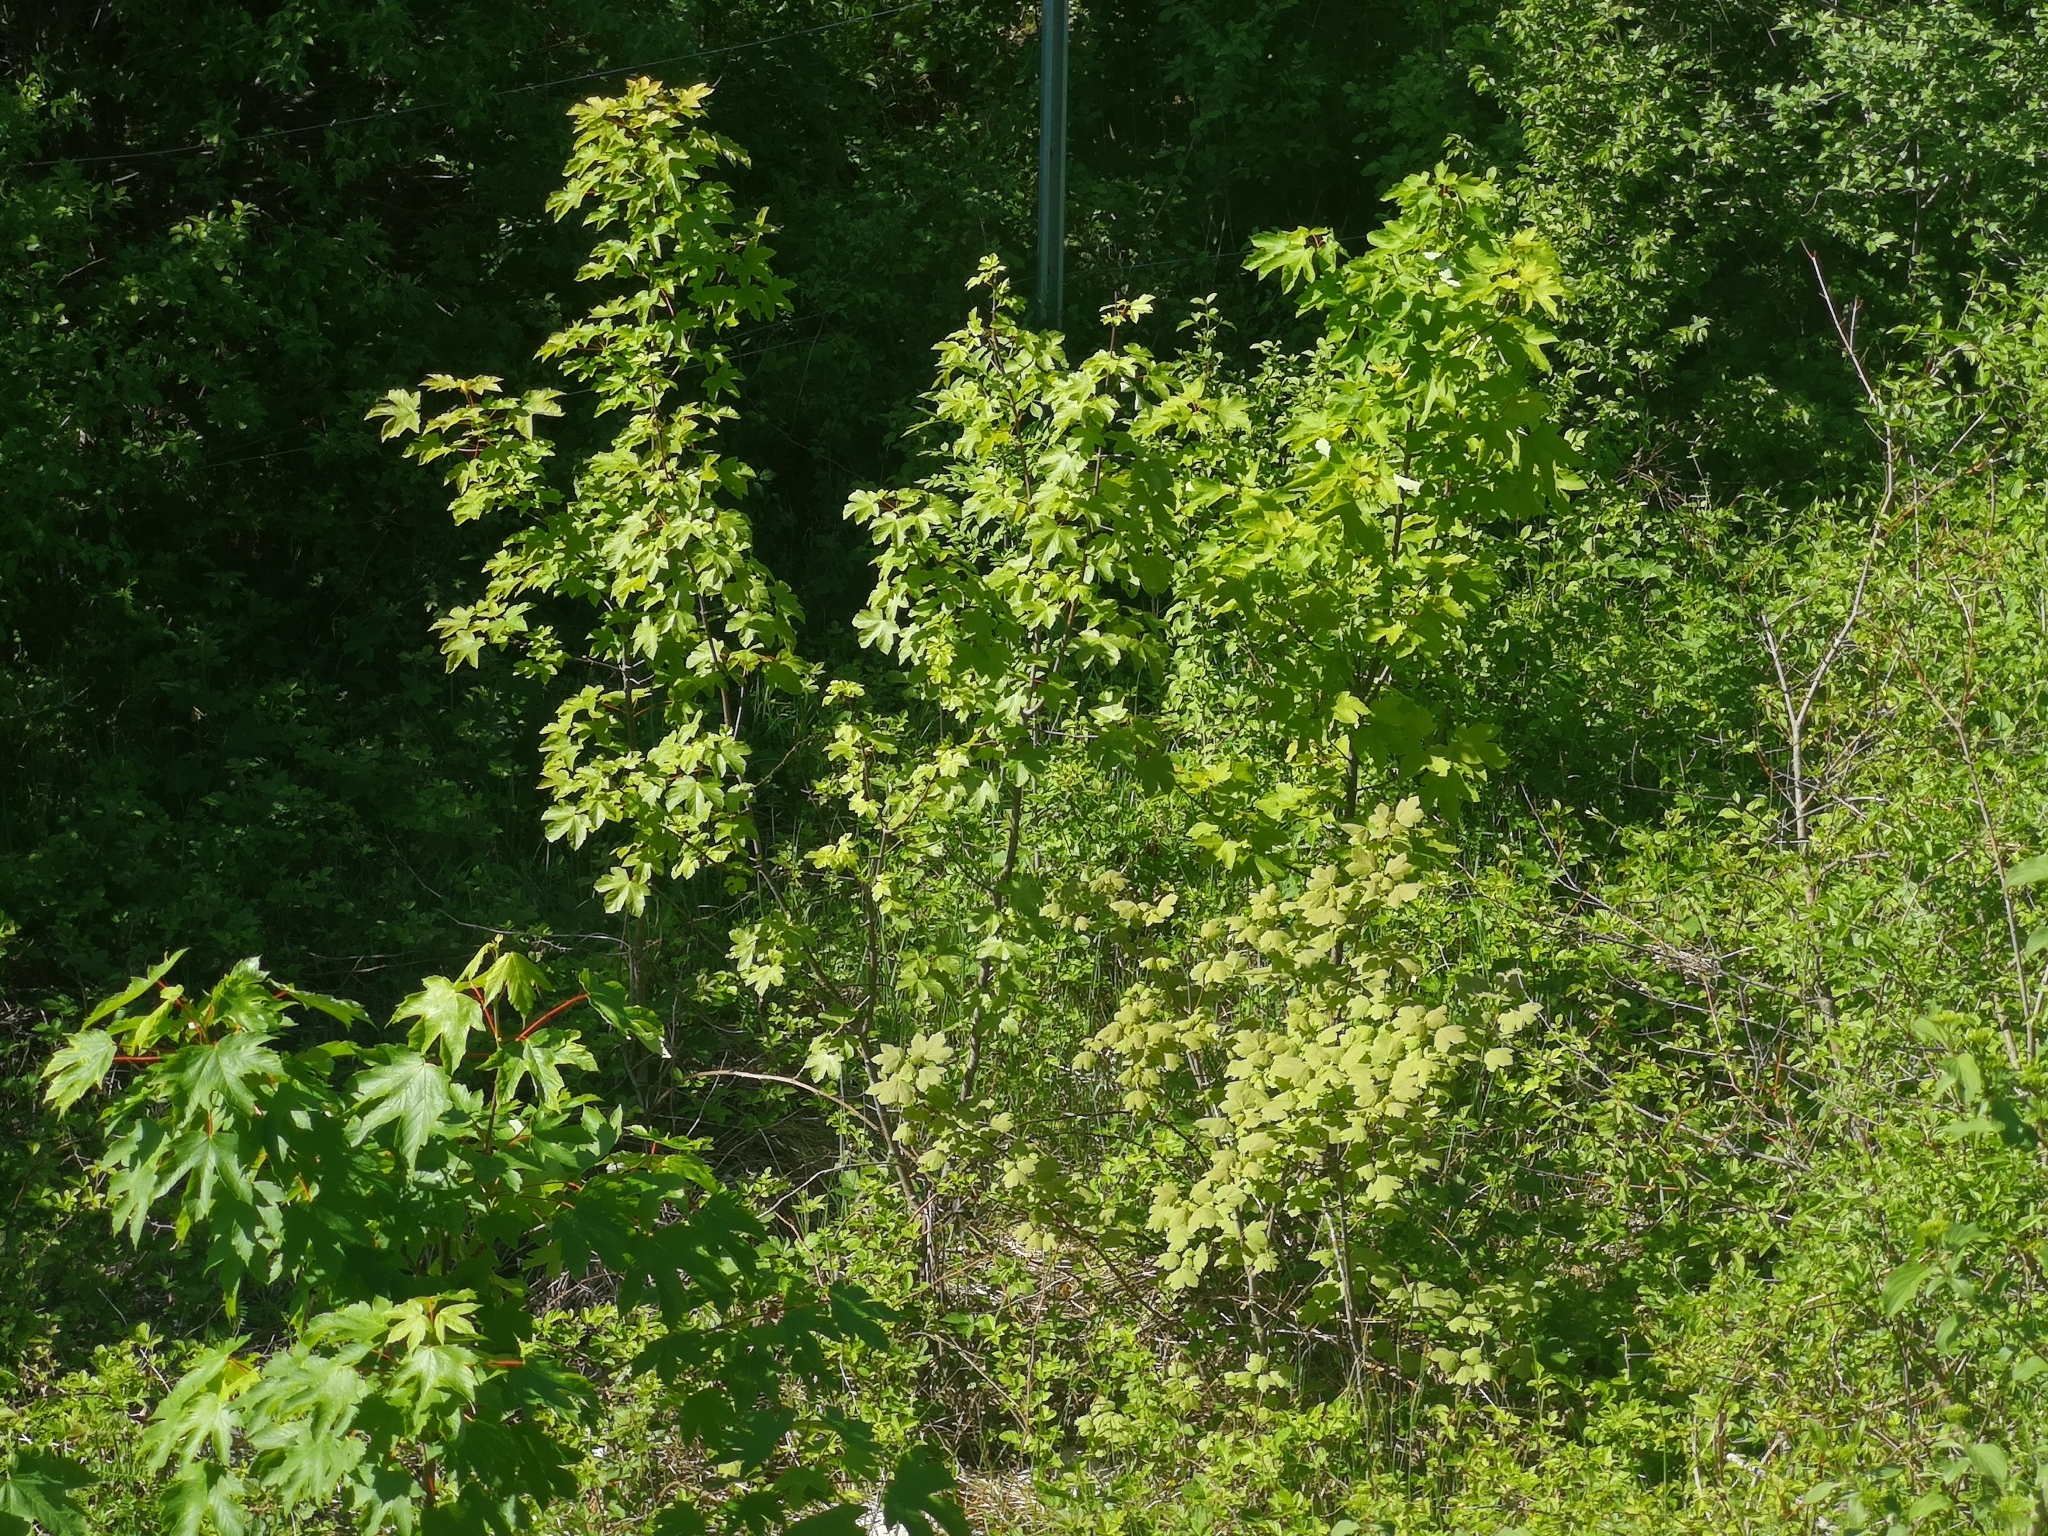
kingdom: Plantae
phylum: Tracheophyta
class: Magnoliopsida
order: Sapindales
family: Sapindaceae
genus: Acer
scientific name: Acer pseudoplatanus
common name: Sycamore
